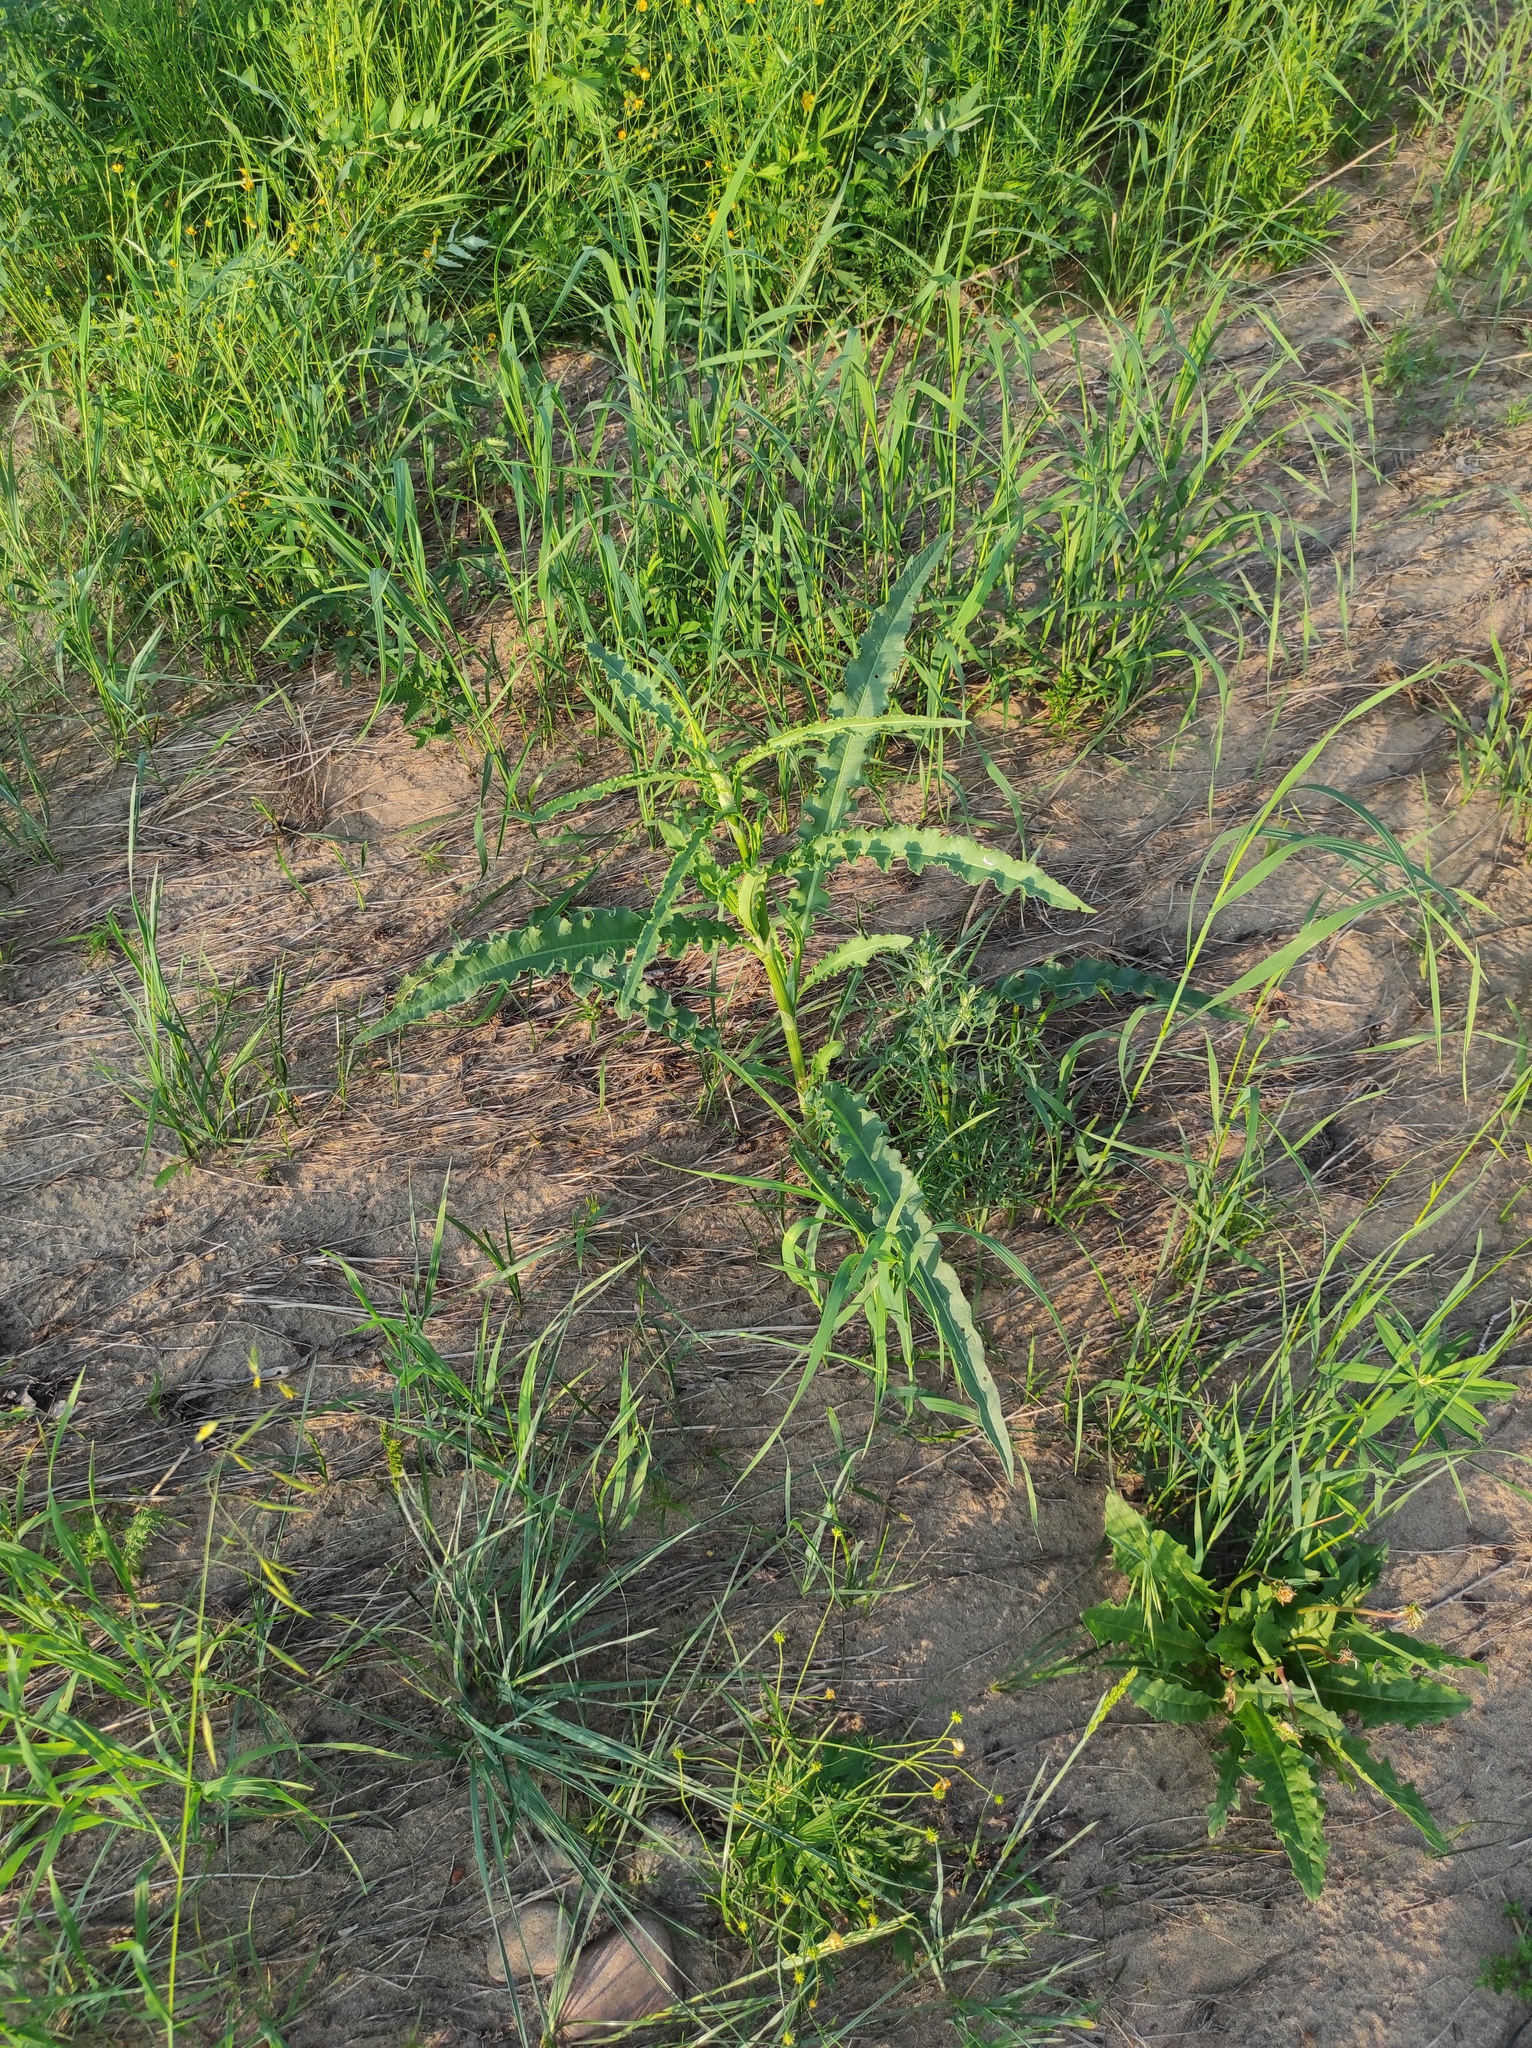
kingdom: Plantae
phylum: Tracheophyta
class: Magnoliopsida
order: Caryophyllales
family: Polygonaceae
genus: Rumex
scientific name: Rumex pseudonatronatus
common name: Field dock
